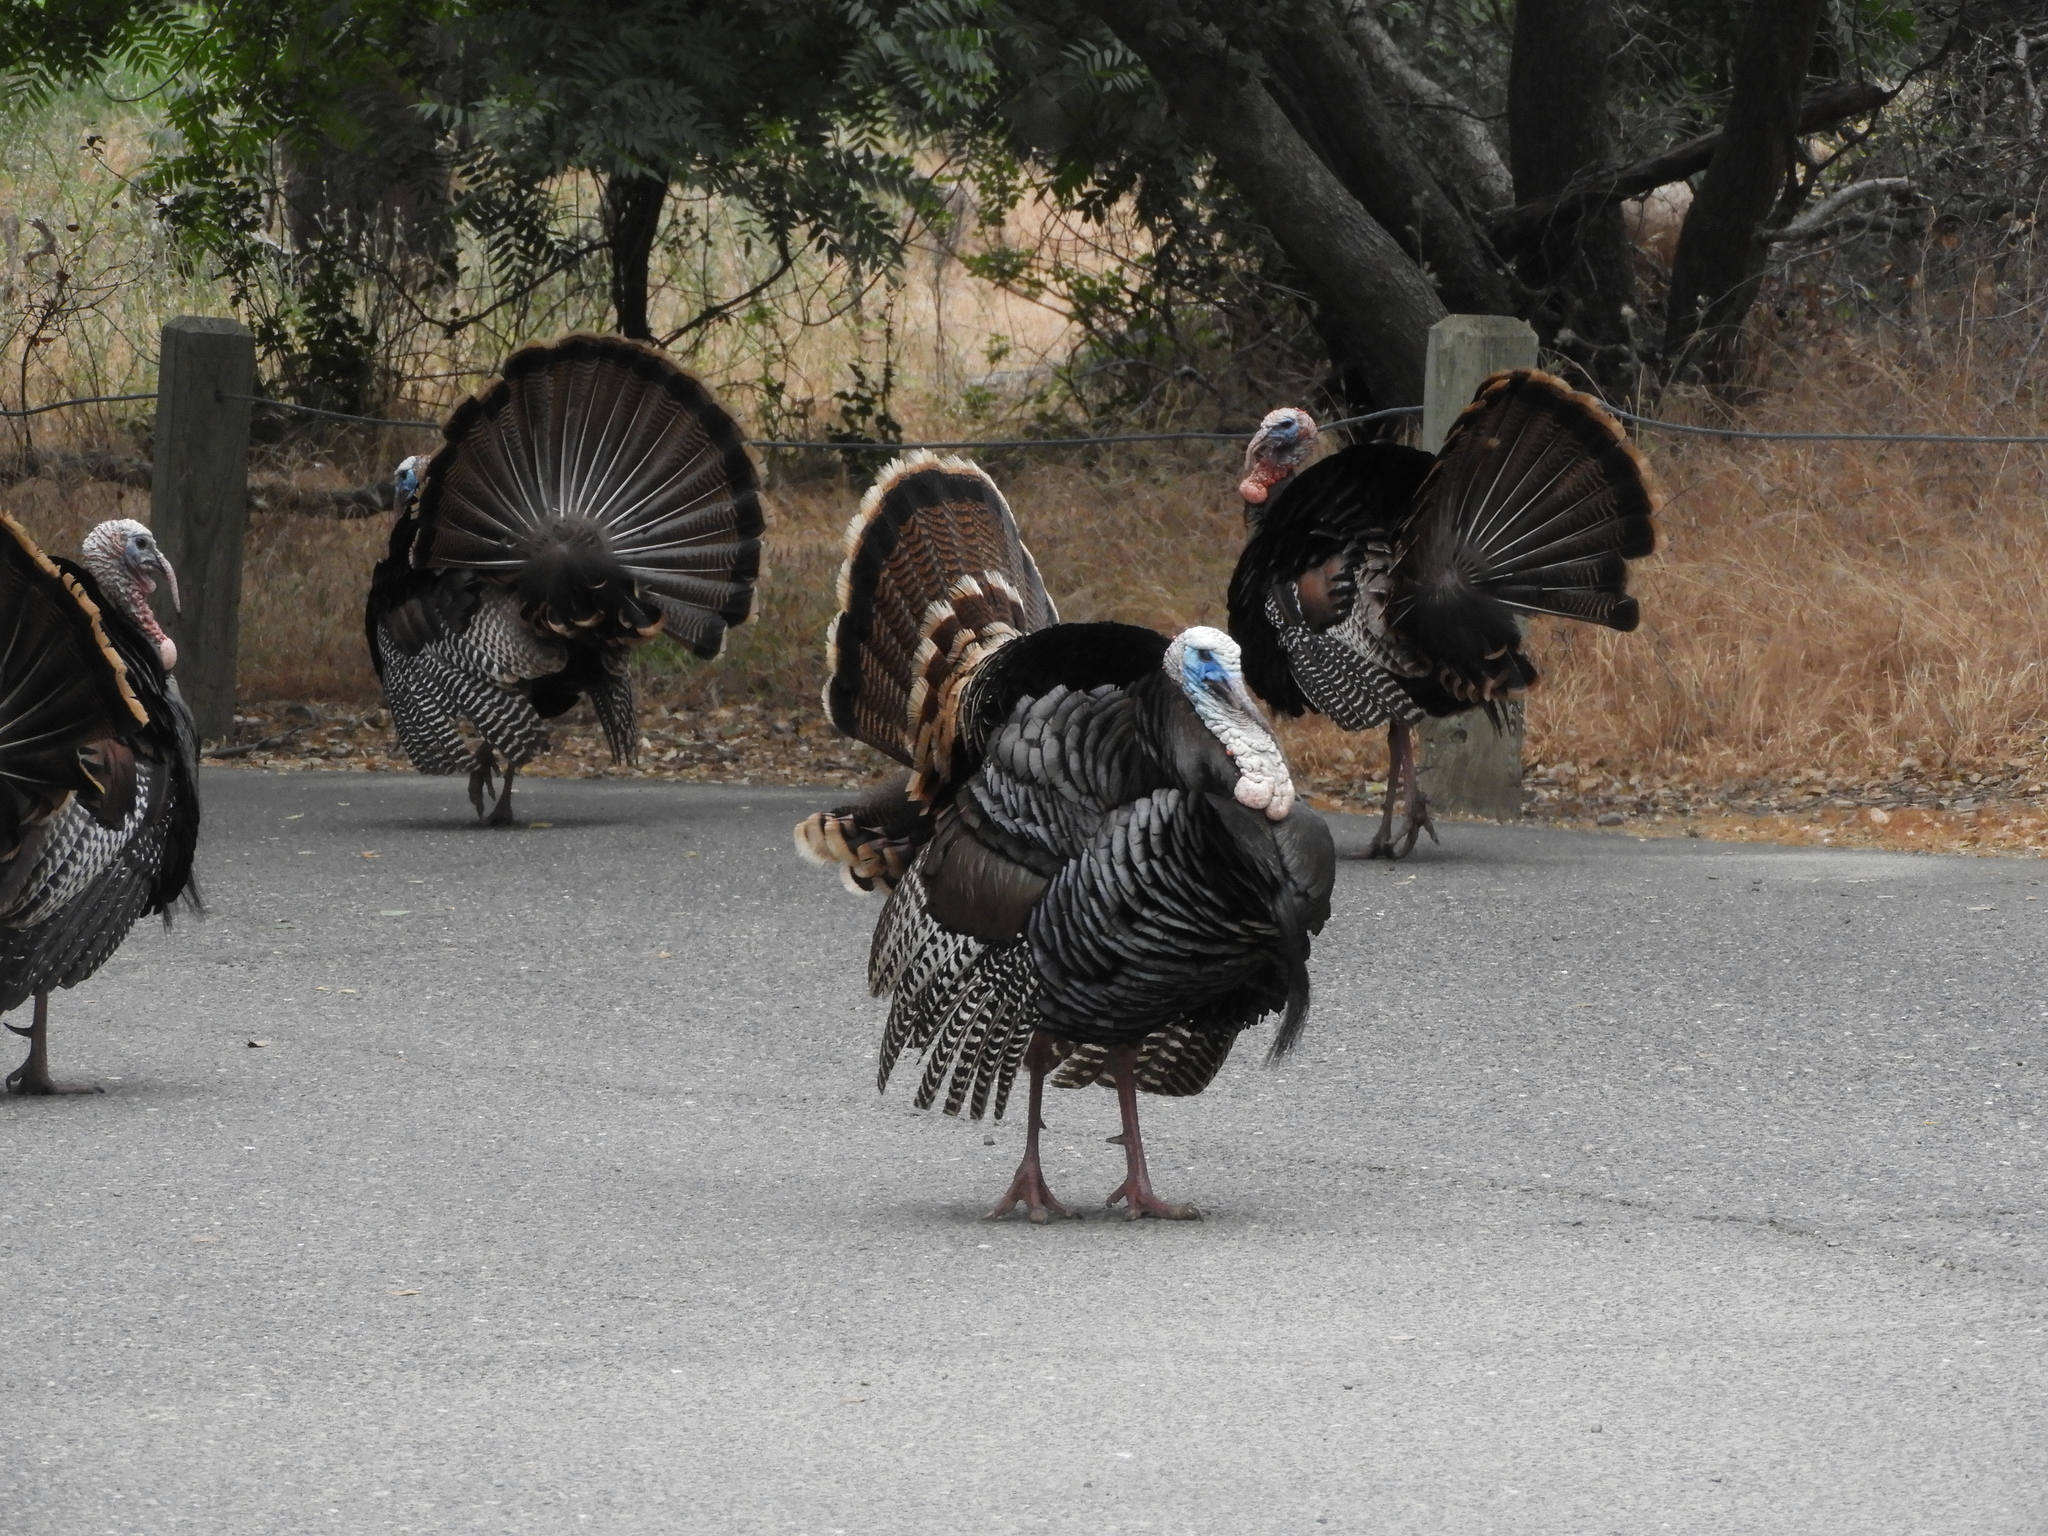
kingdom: Animalia
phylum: Chordata
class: Aves
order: Galliformes
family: Phasianidae
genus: Meleagris
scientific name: Meleagris gallopavo
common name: Wild turkey
